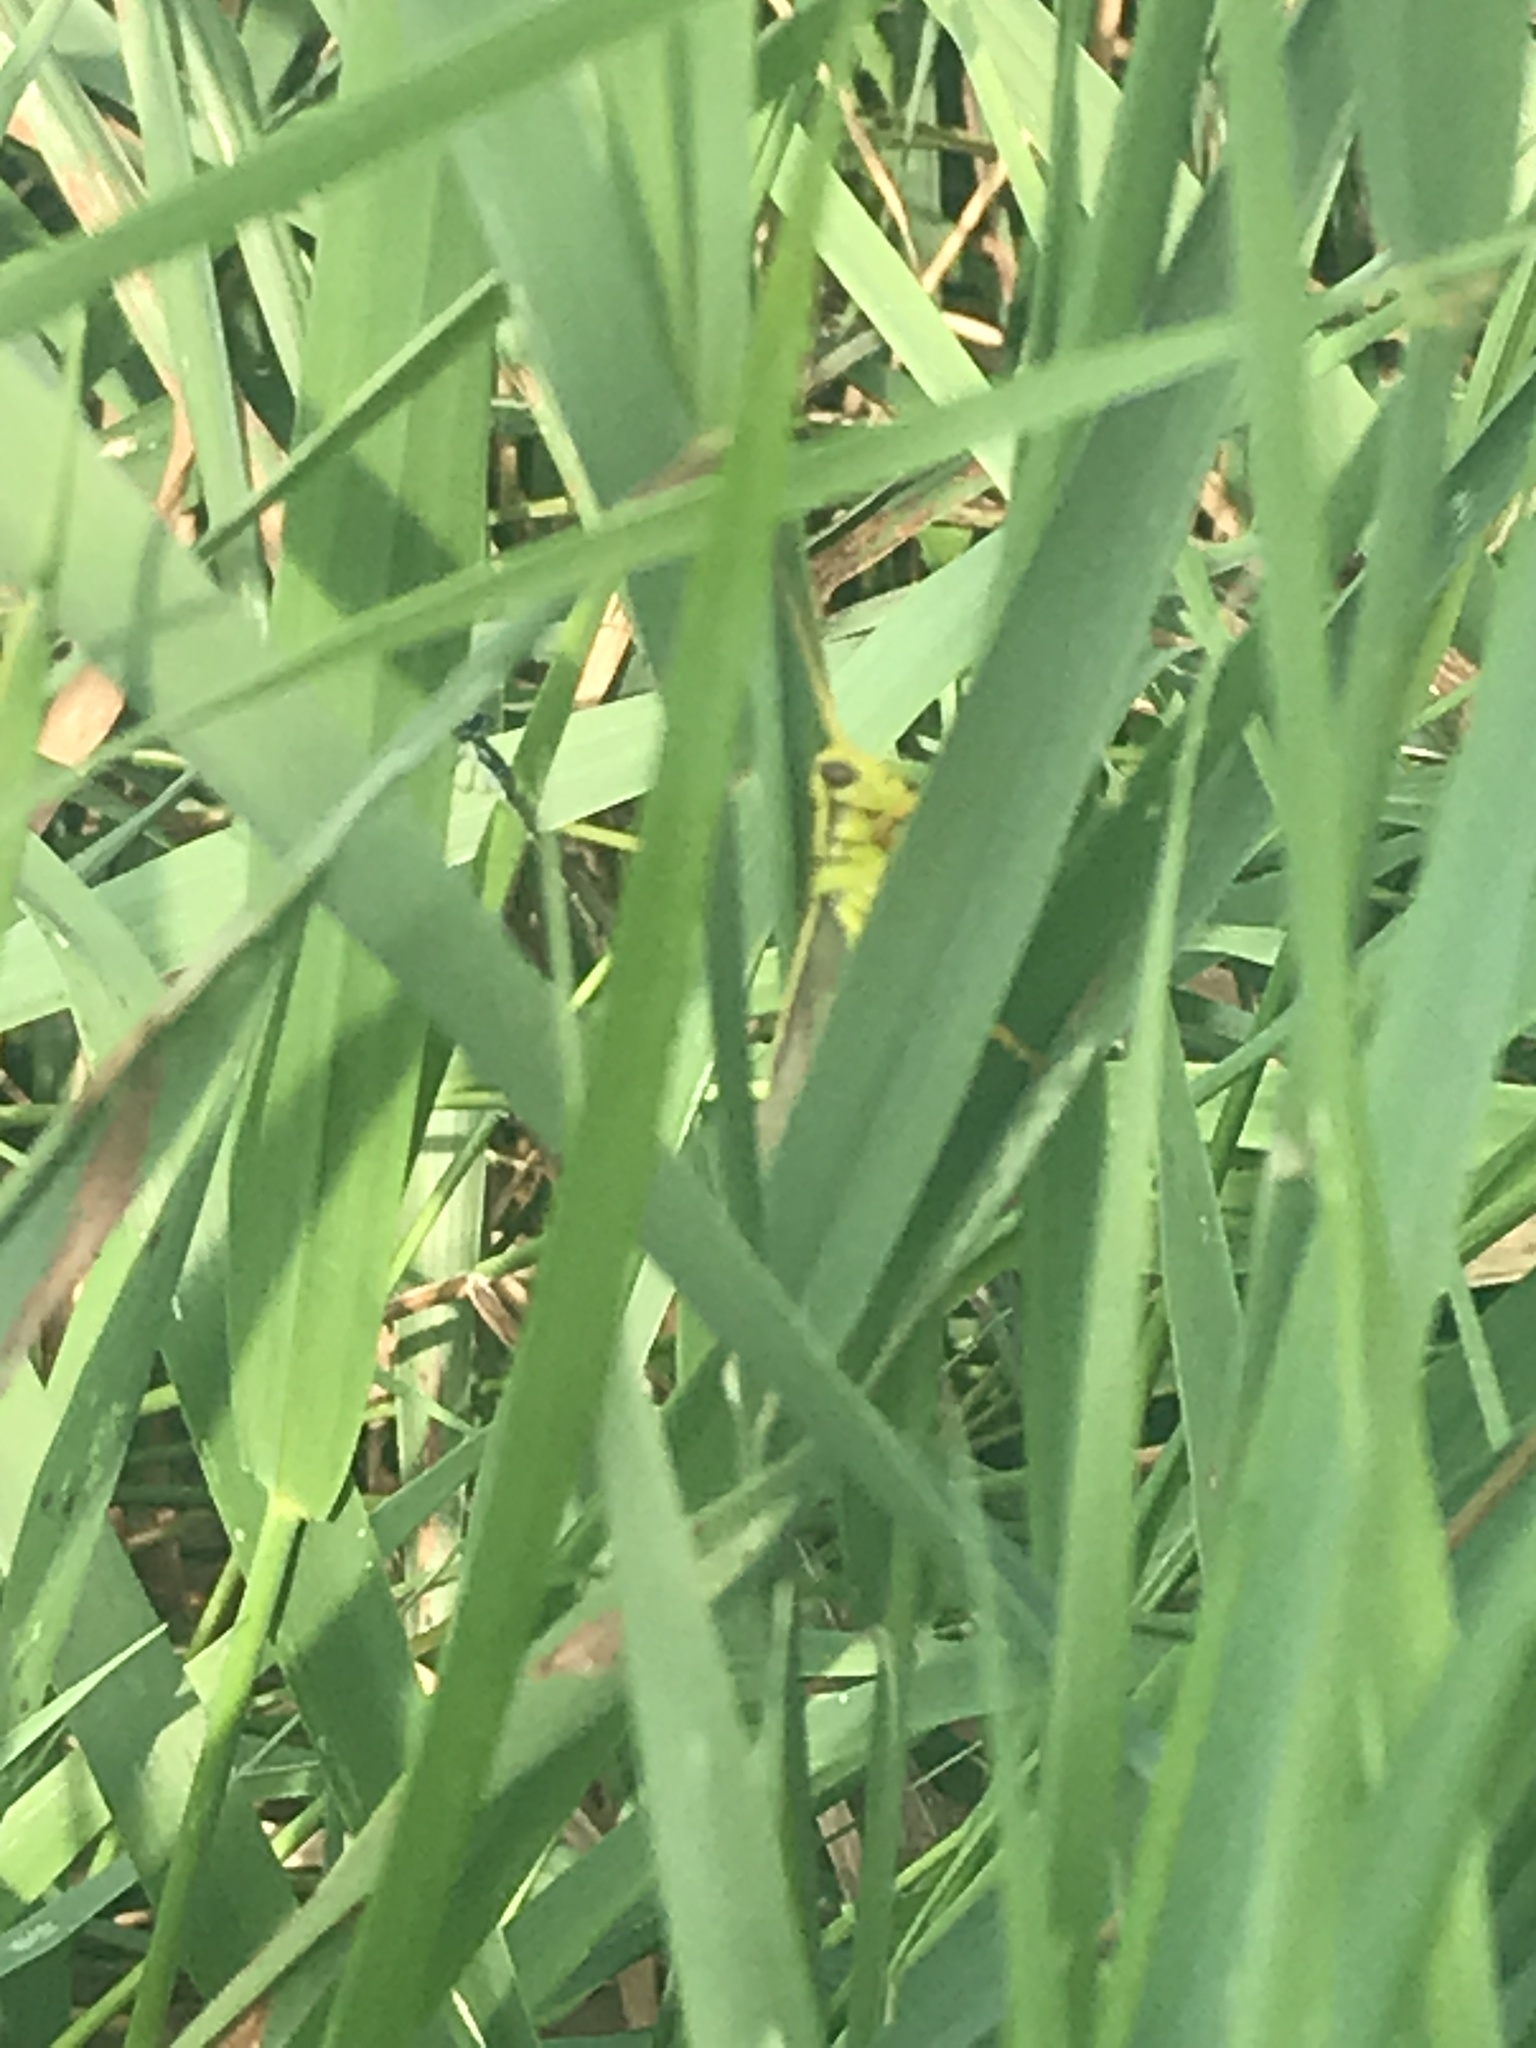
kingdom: Animalia
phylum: Arthropoda
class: Insecta
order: Orthoptera
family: Acrididae
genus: Melanoplus
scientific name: Melanoplus bivittatus
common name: Two-striped grasshopper
